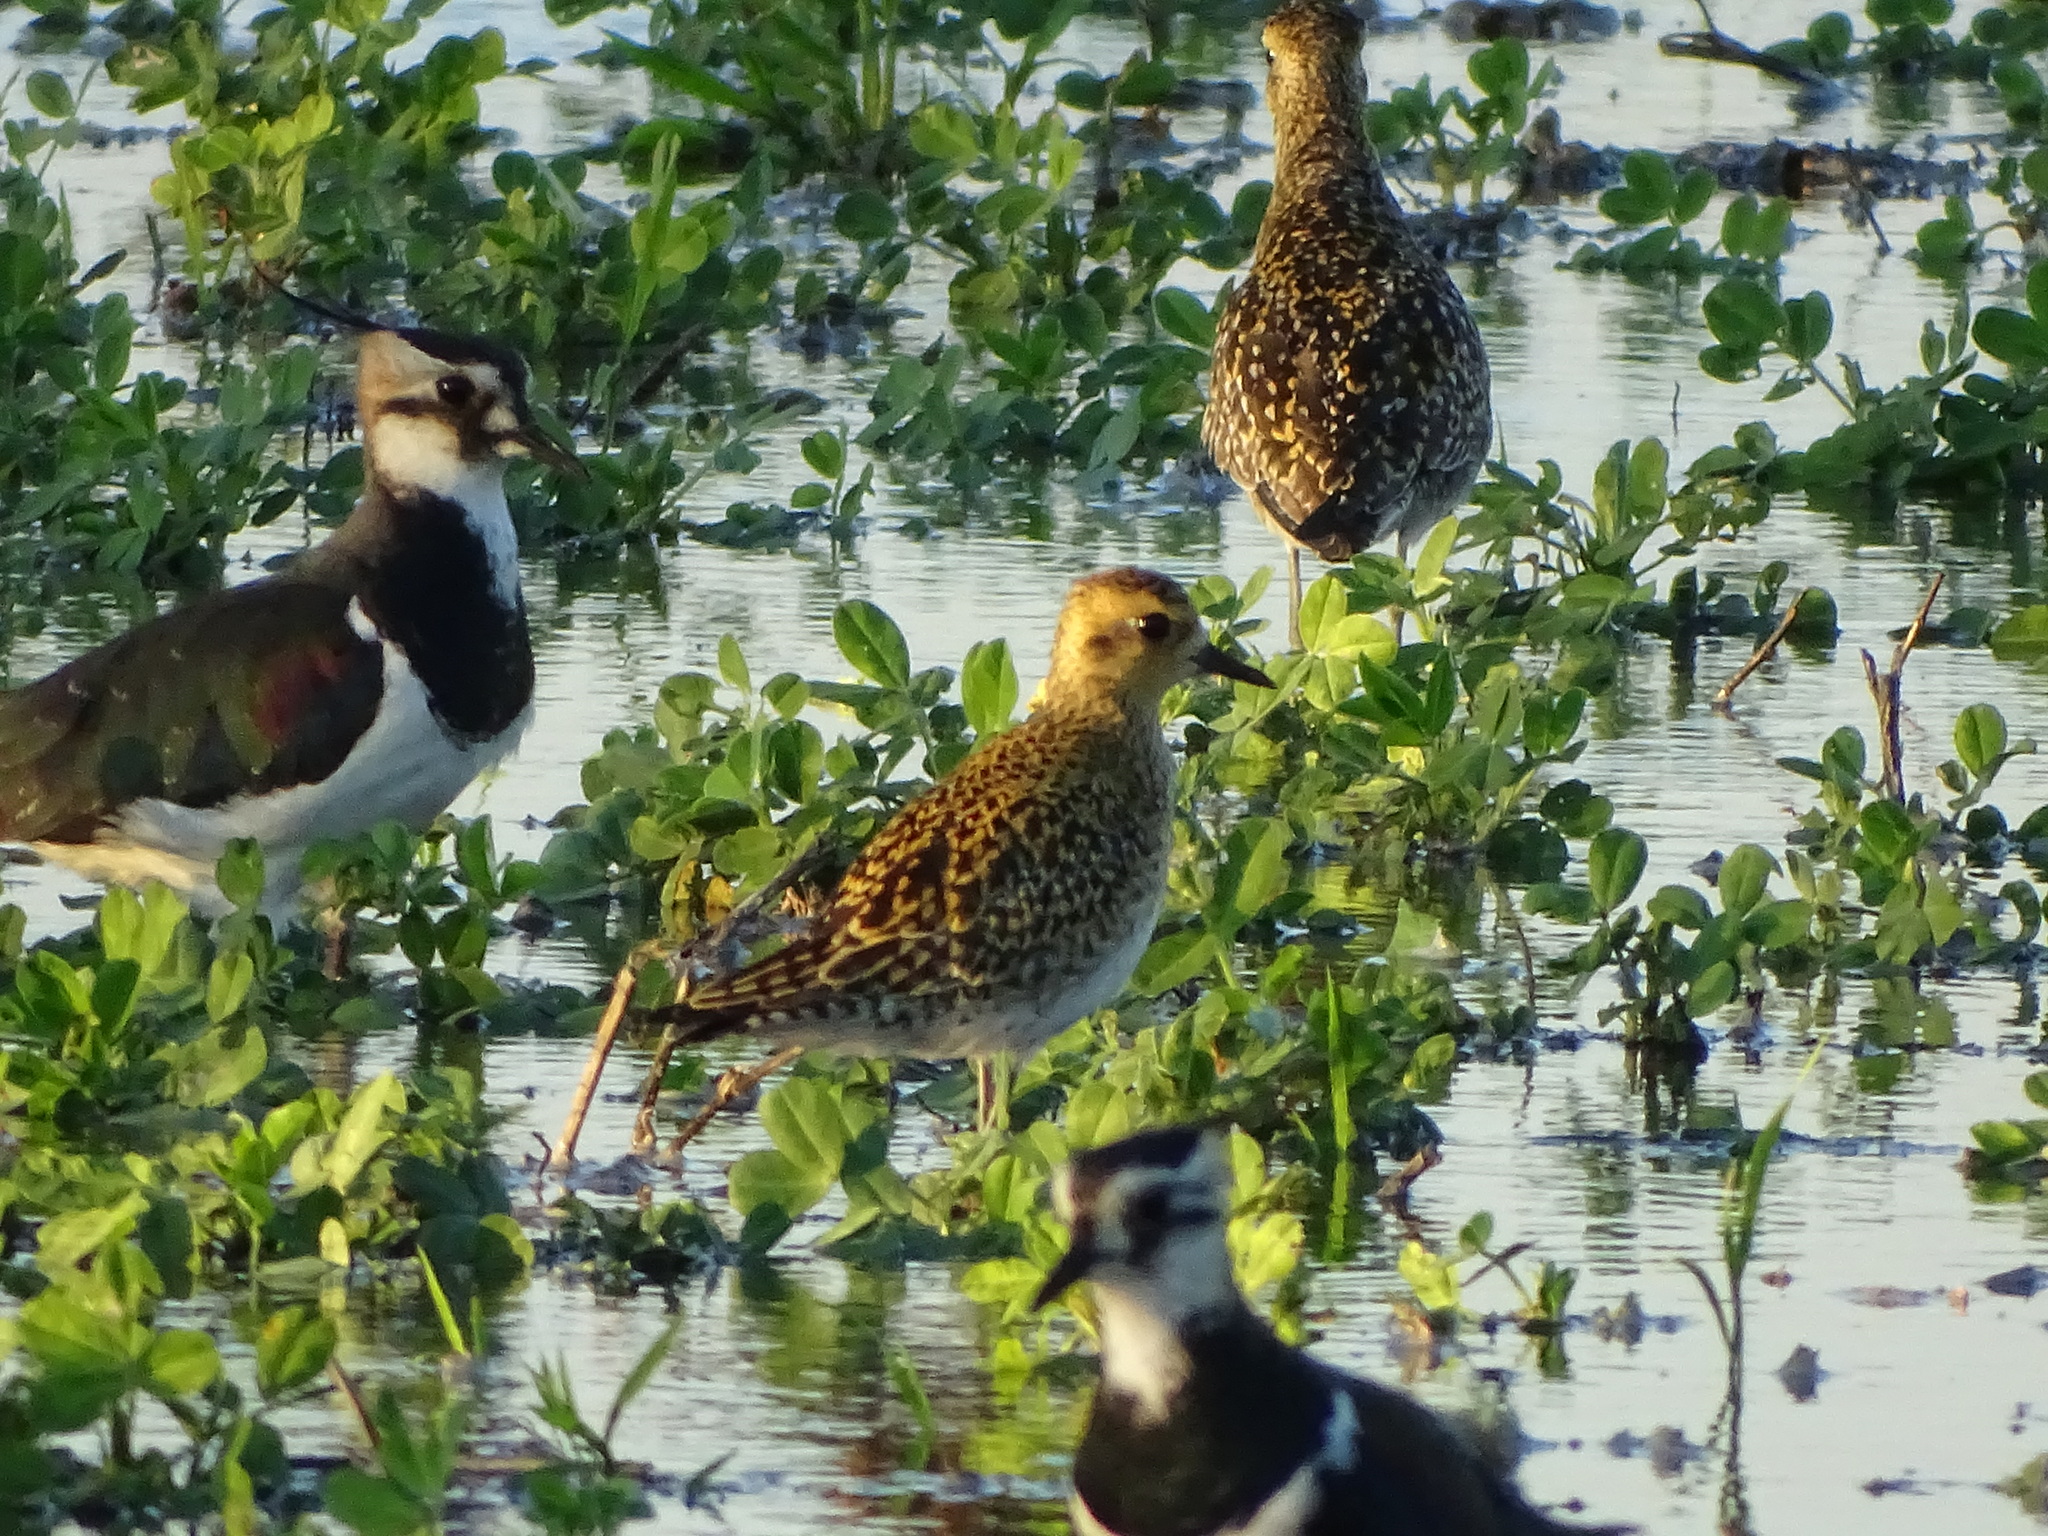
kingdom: Animalia
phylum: Chordata
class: Aves
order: Charadriiformes
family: Charadriidae
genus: Pluvialis
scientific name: Pluvialis fulva
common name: Pacific golden plover
